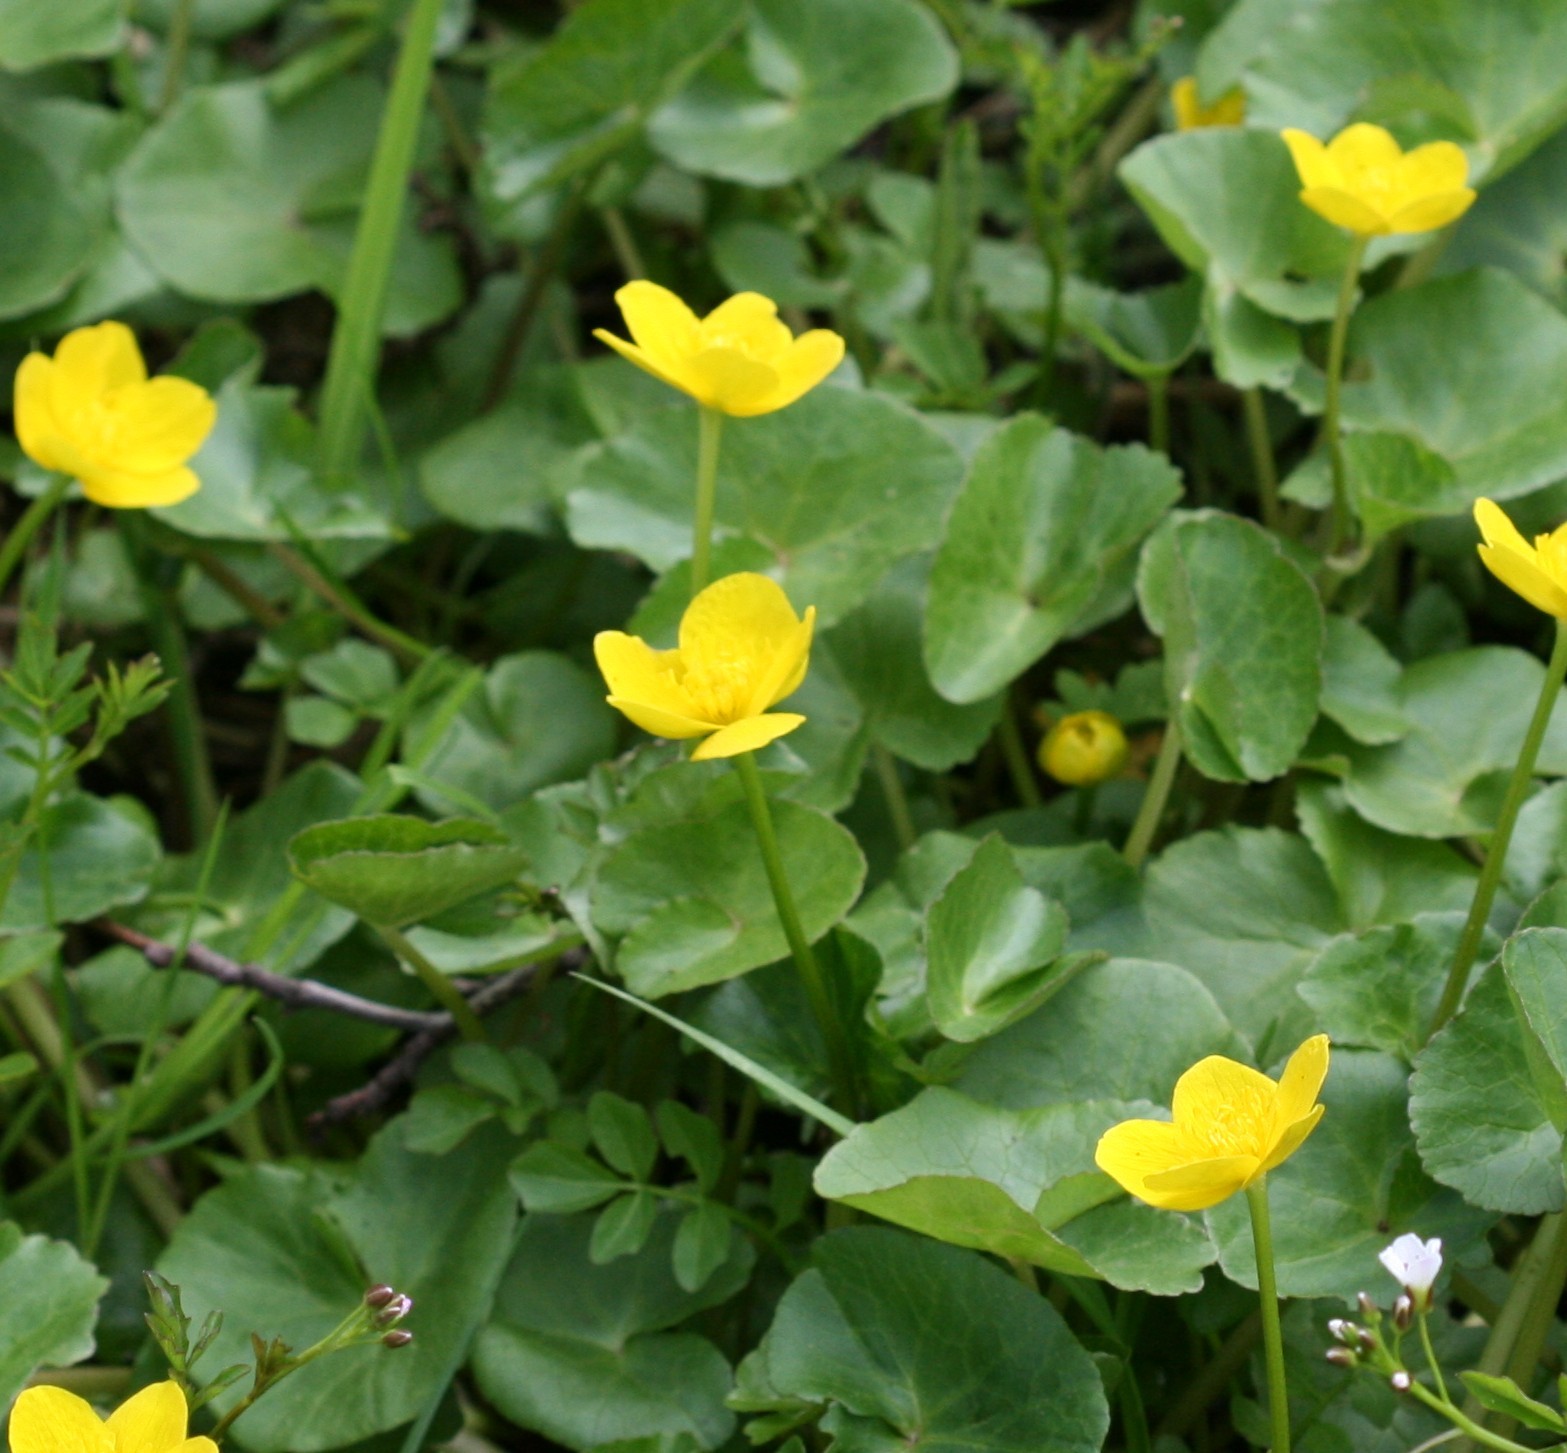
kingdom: Plantae
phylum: Tracheophyta
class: Magnoliopsida
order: Ranunculales
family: Ranunculaceae
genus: Caltha
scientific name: Caltha palustris
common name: Marsh marigold
